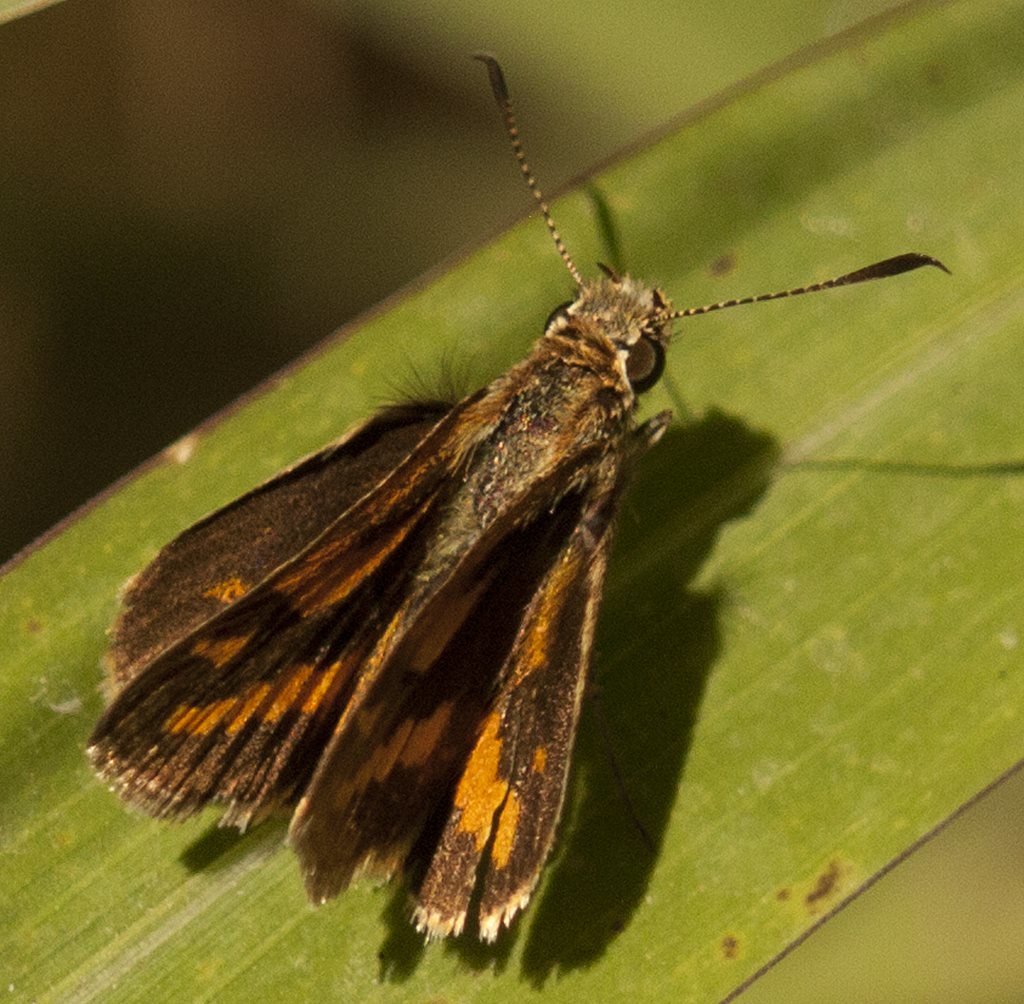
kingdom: Animalia
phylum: Arthropoda
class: Insecta
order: Lepidoptera
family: Hesperiidae
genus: Suniana
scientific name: Suniana sunias
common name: Wide-brand grass-dart
